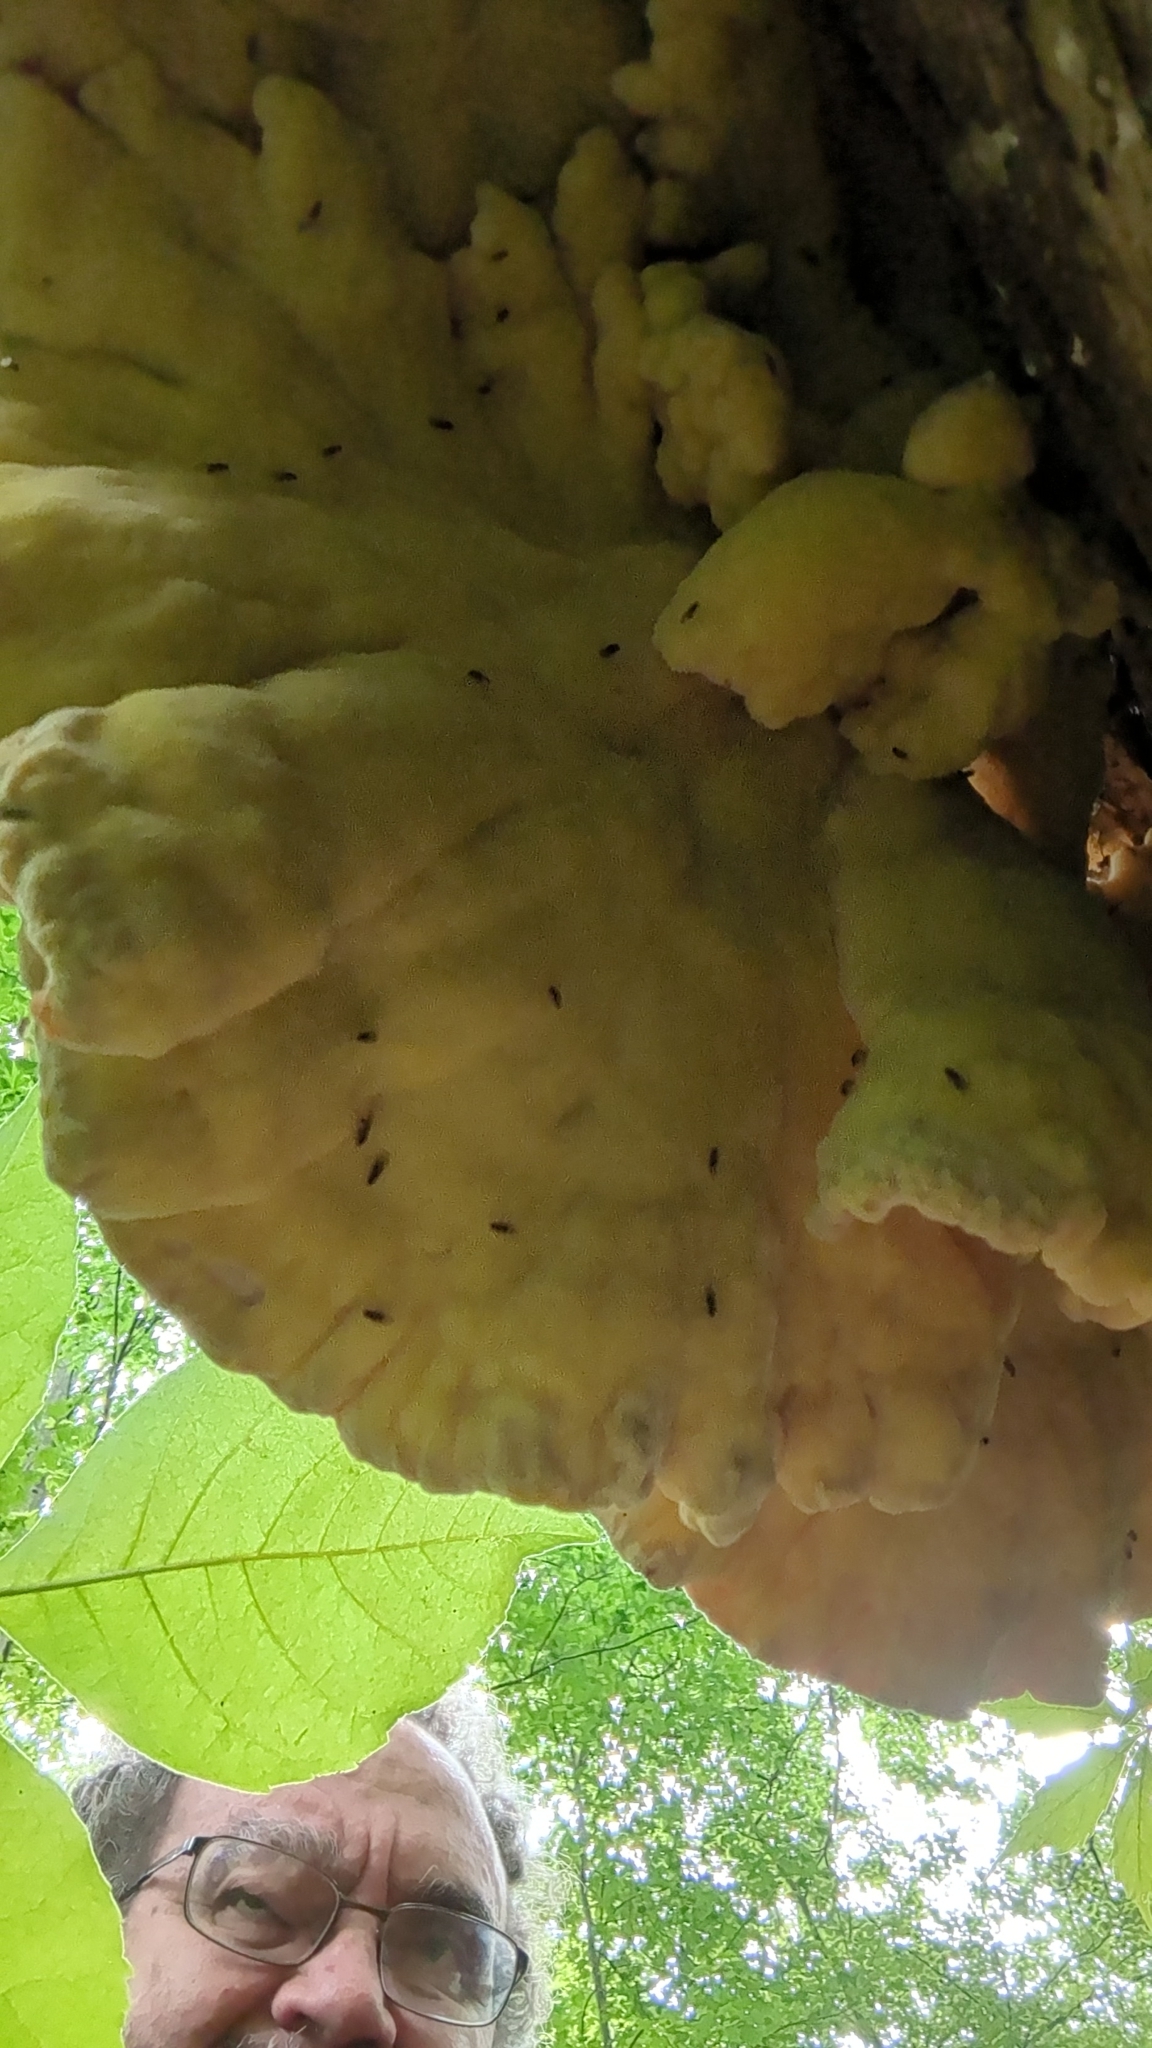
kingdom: Fungi
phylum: Basidiomycota
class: Agaricomycetes
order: Polyporales
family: Laetiporaceae
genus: Laetiporus
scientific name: Laetiporus sulphureus
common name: Chicken of the woods
